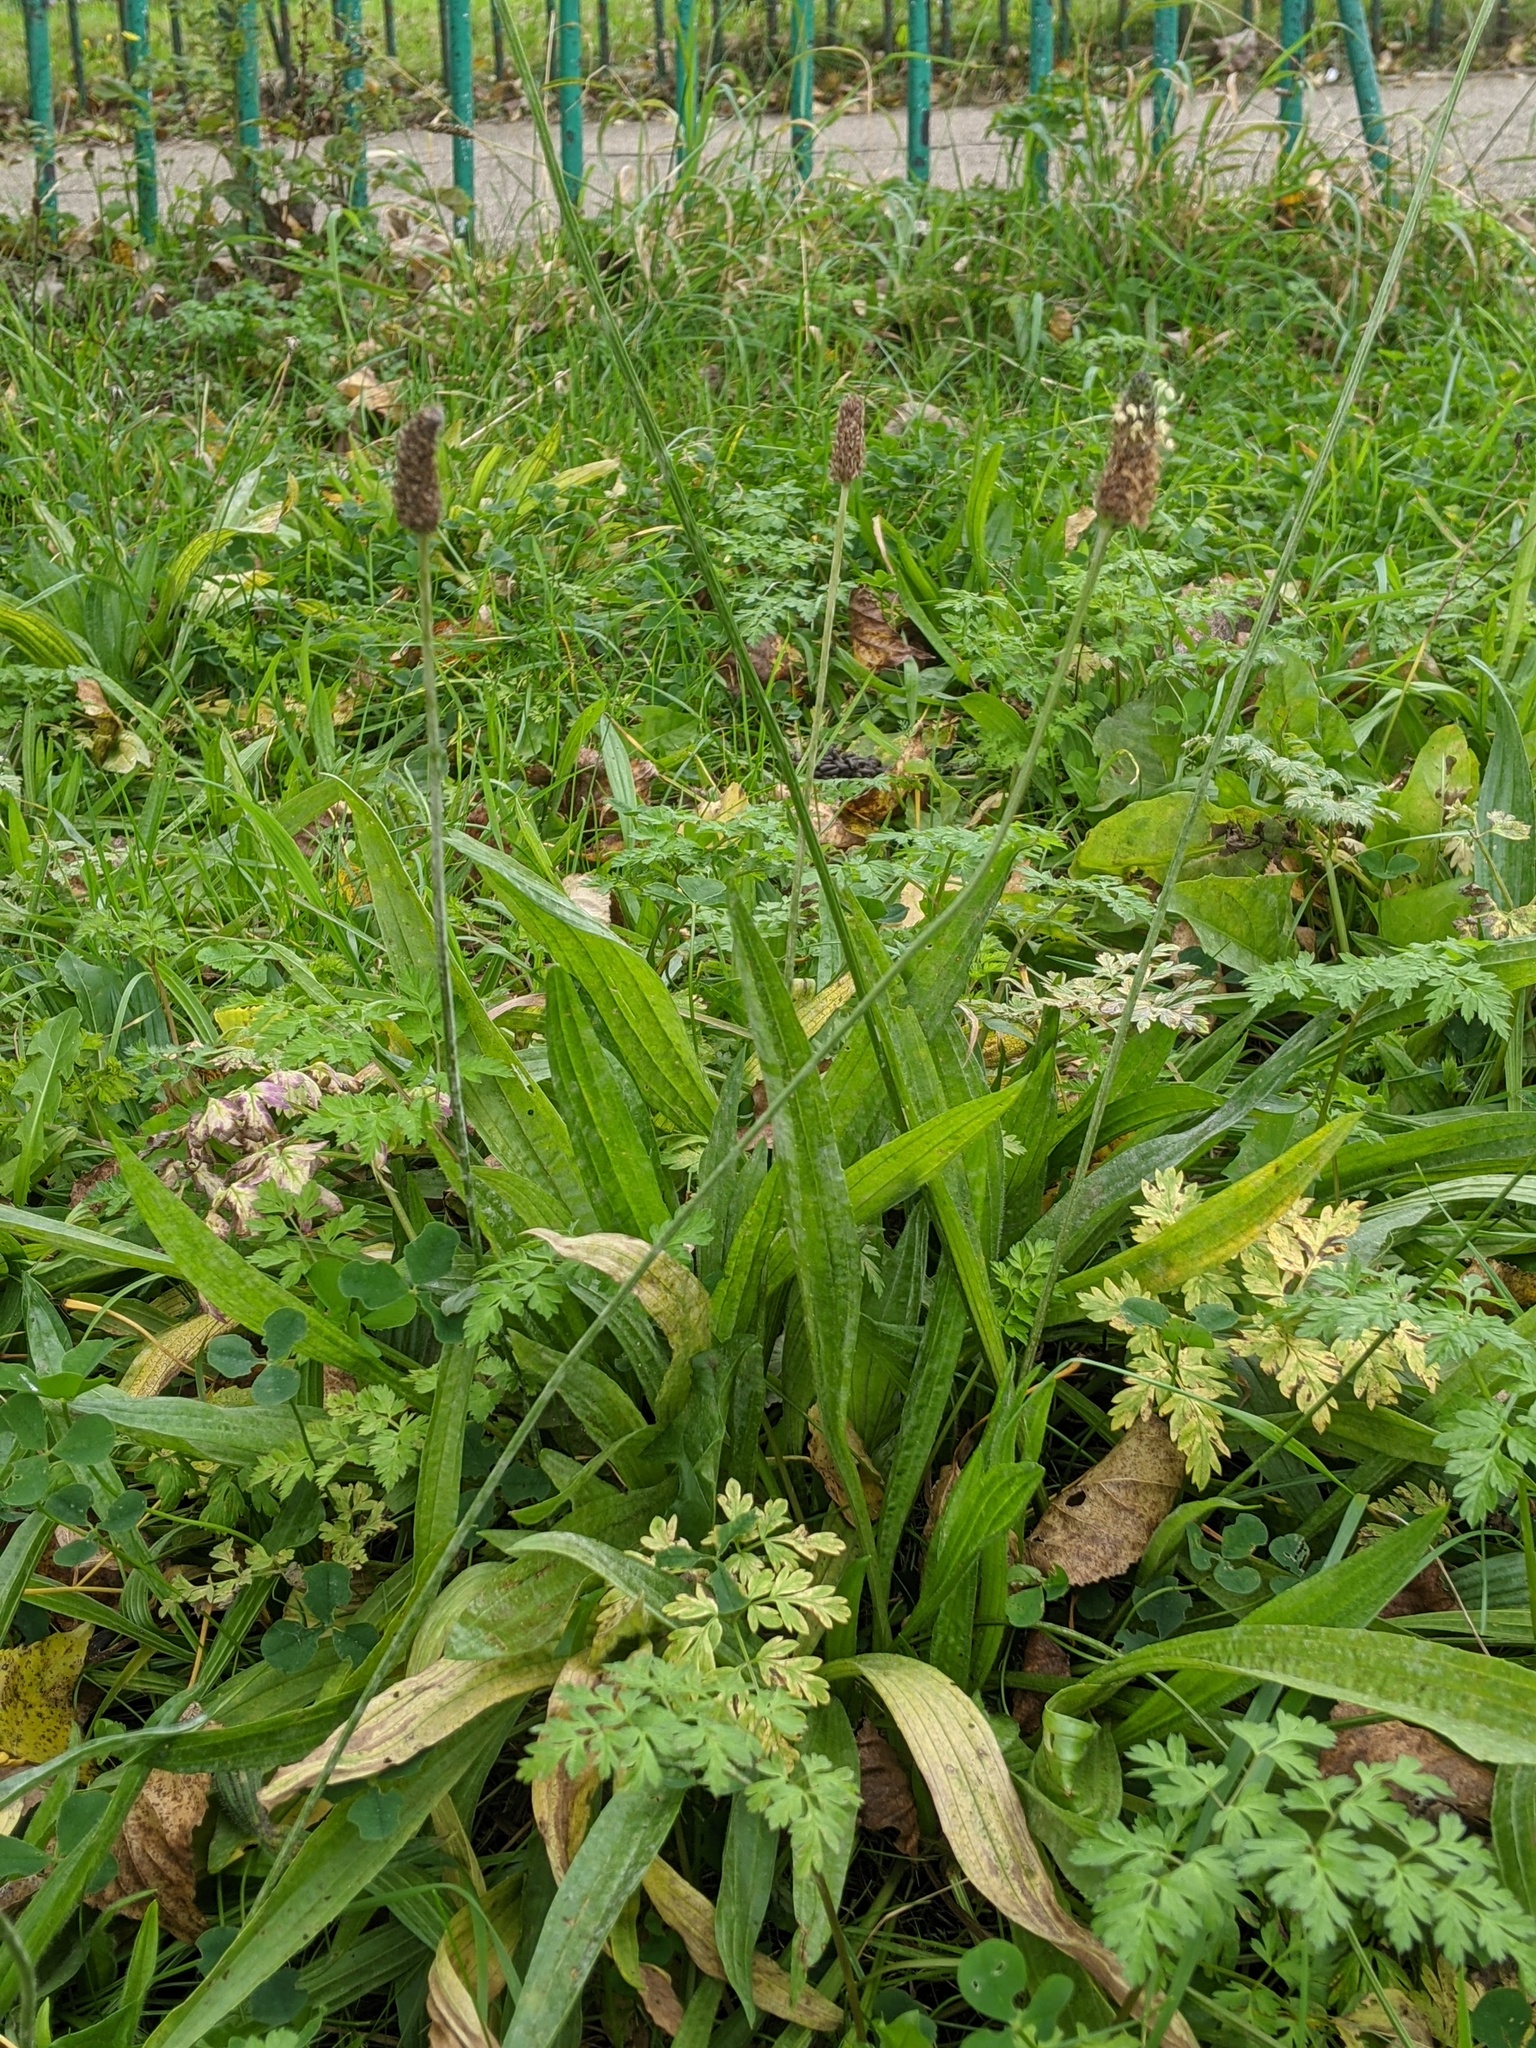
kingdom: Plantae
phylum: Tracheophyta
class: Magnoliopsida
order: Lamiales
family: Plantaginaceae
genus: Plantago
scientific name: Plantago lanceolata
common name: Ribwort plantain
